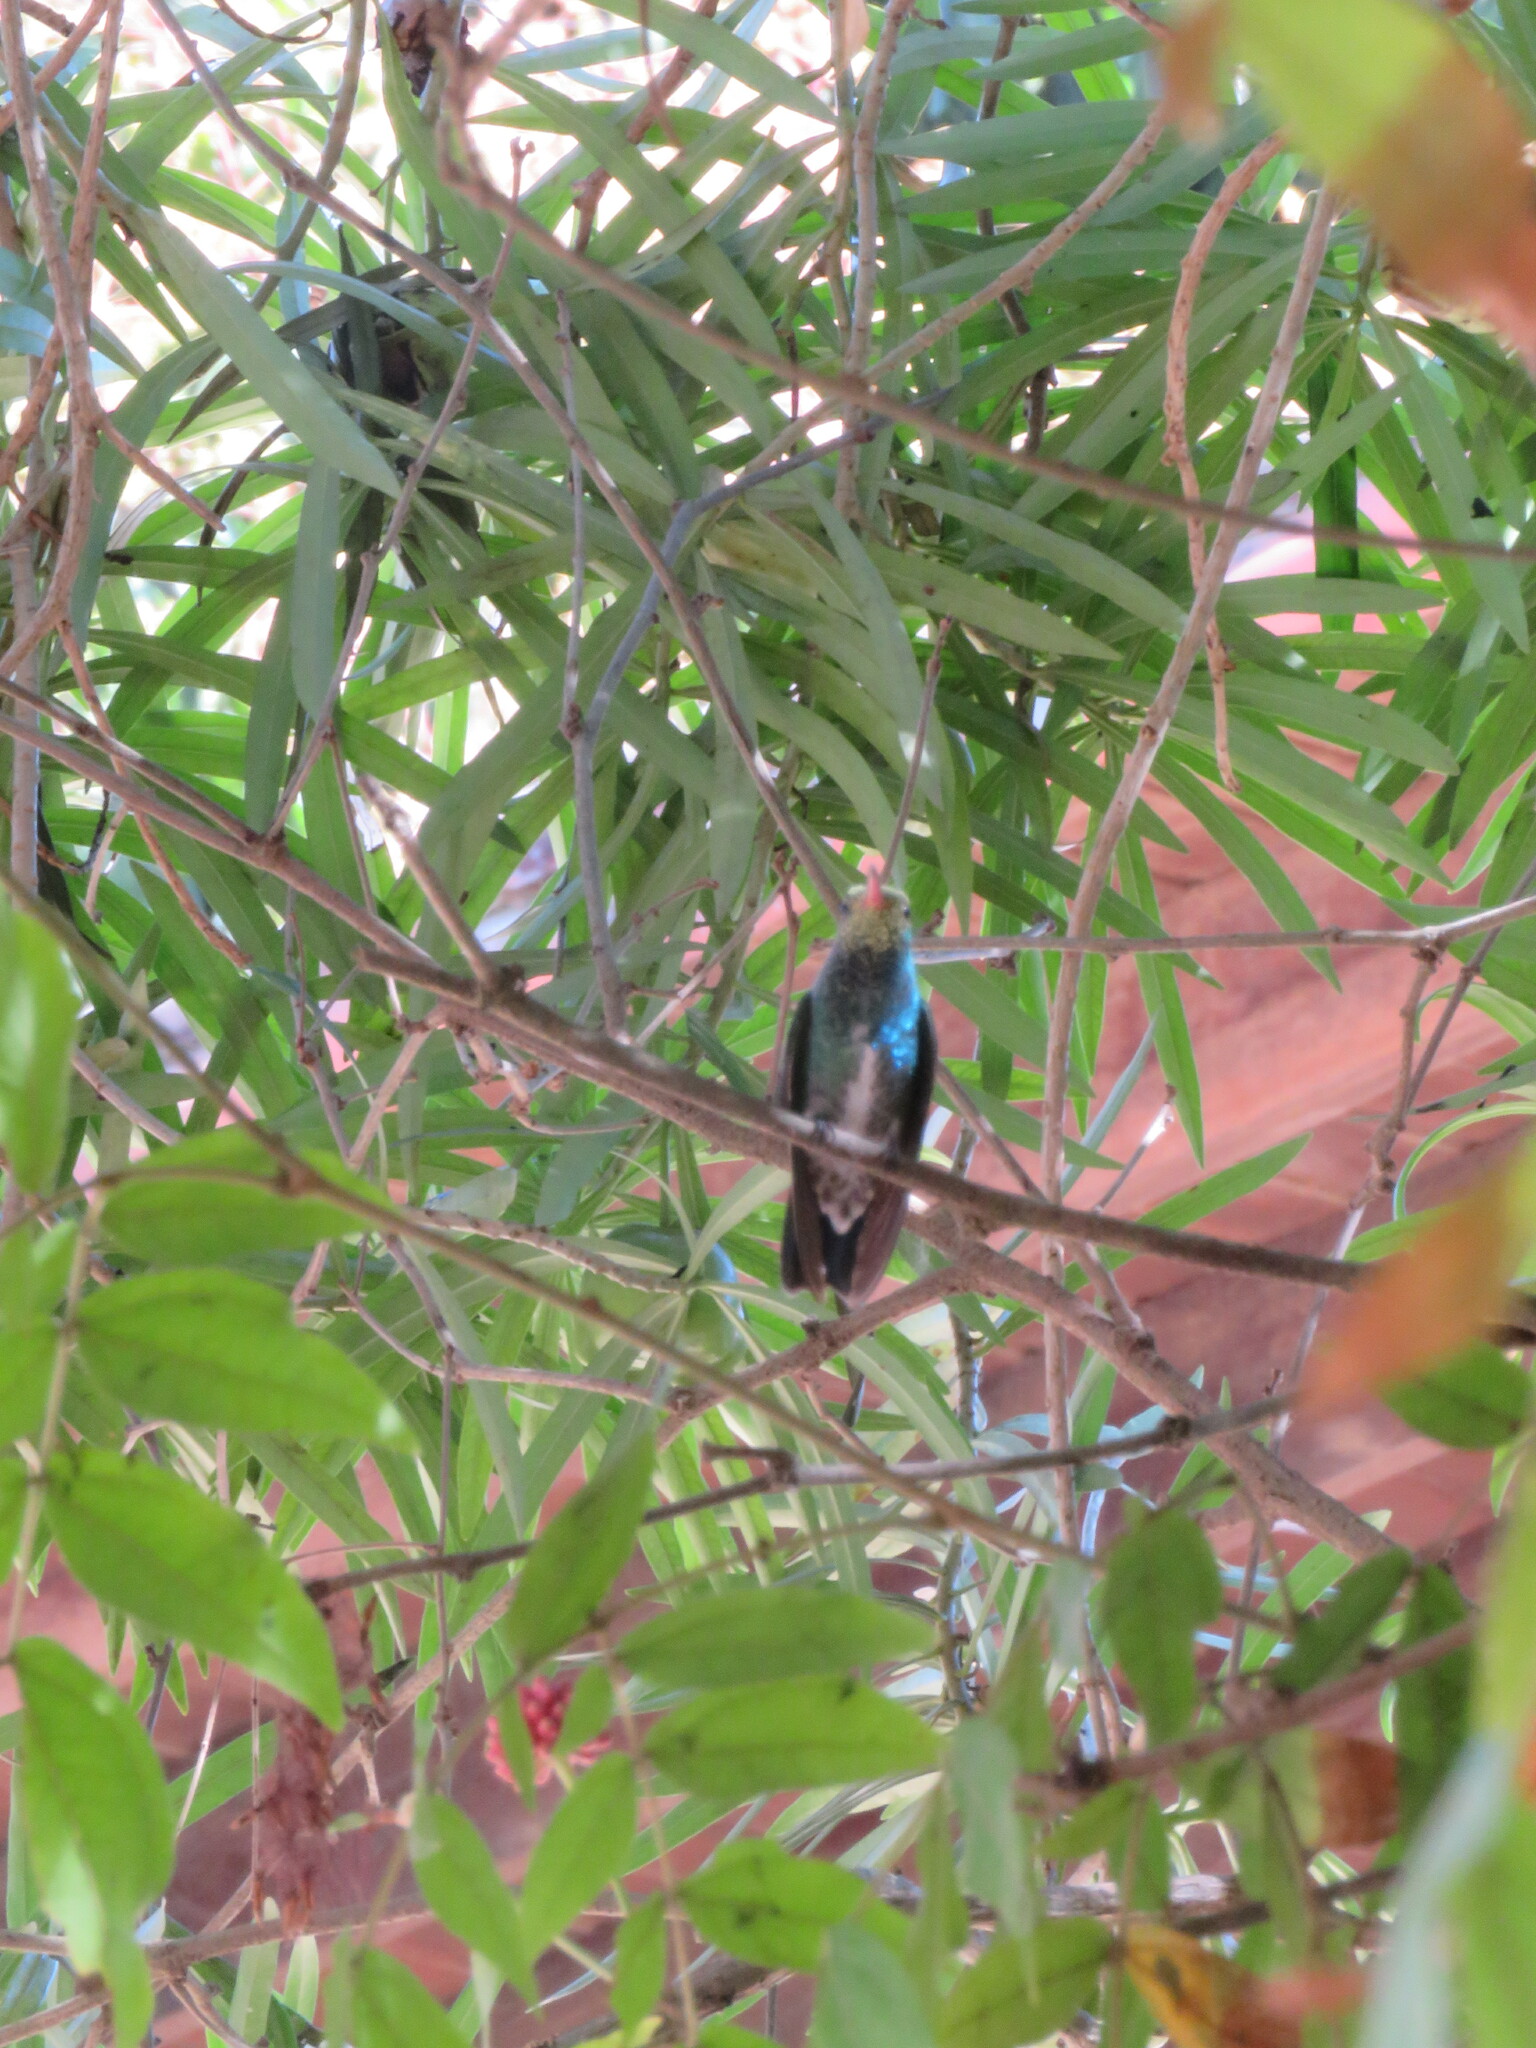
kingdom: Animalia
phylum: Chordata
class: Aves
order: Apodiformes
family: Trochilidae
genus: Chionomesa
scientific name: Chionomesa lactea
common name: Sapphire-spangled emerald
